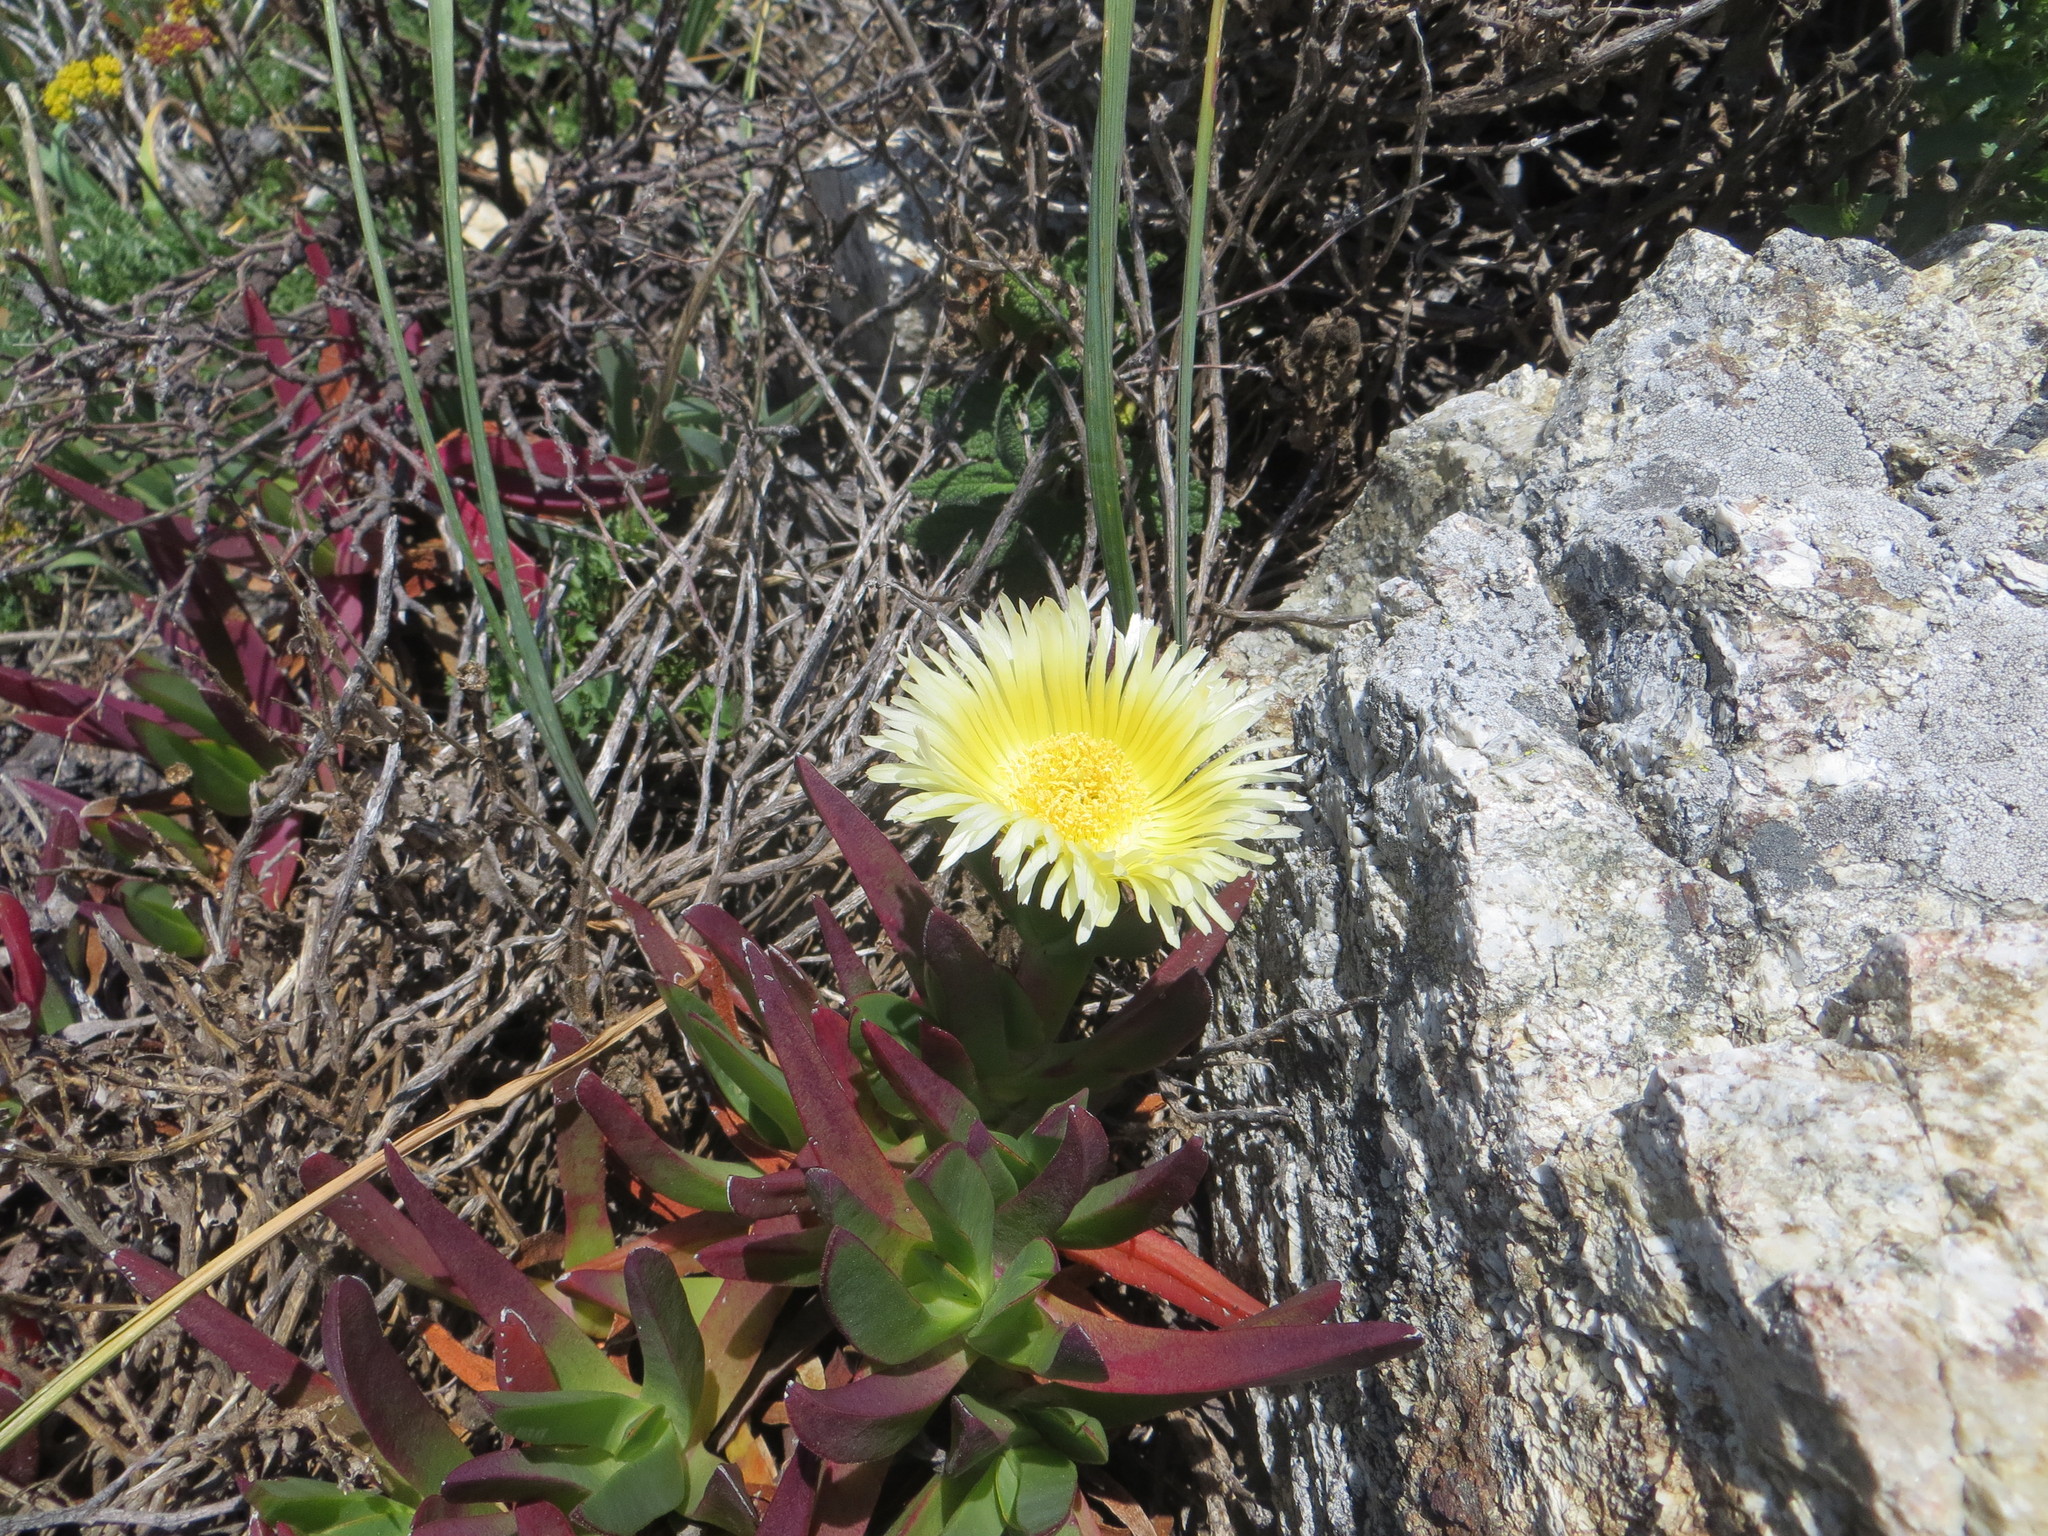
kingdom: Plantae
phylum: Tracheophyta
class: Magnoliopsida
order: Caryophyllales
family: Aizoaceae
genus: Carpobrotus
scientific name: Carpobrotus edulis
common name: Hottentot-fig
